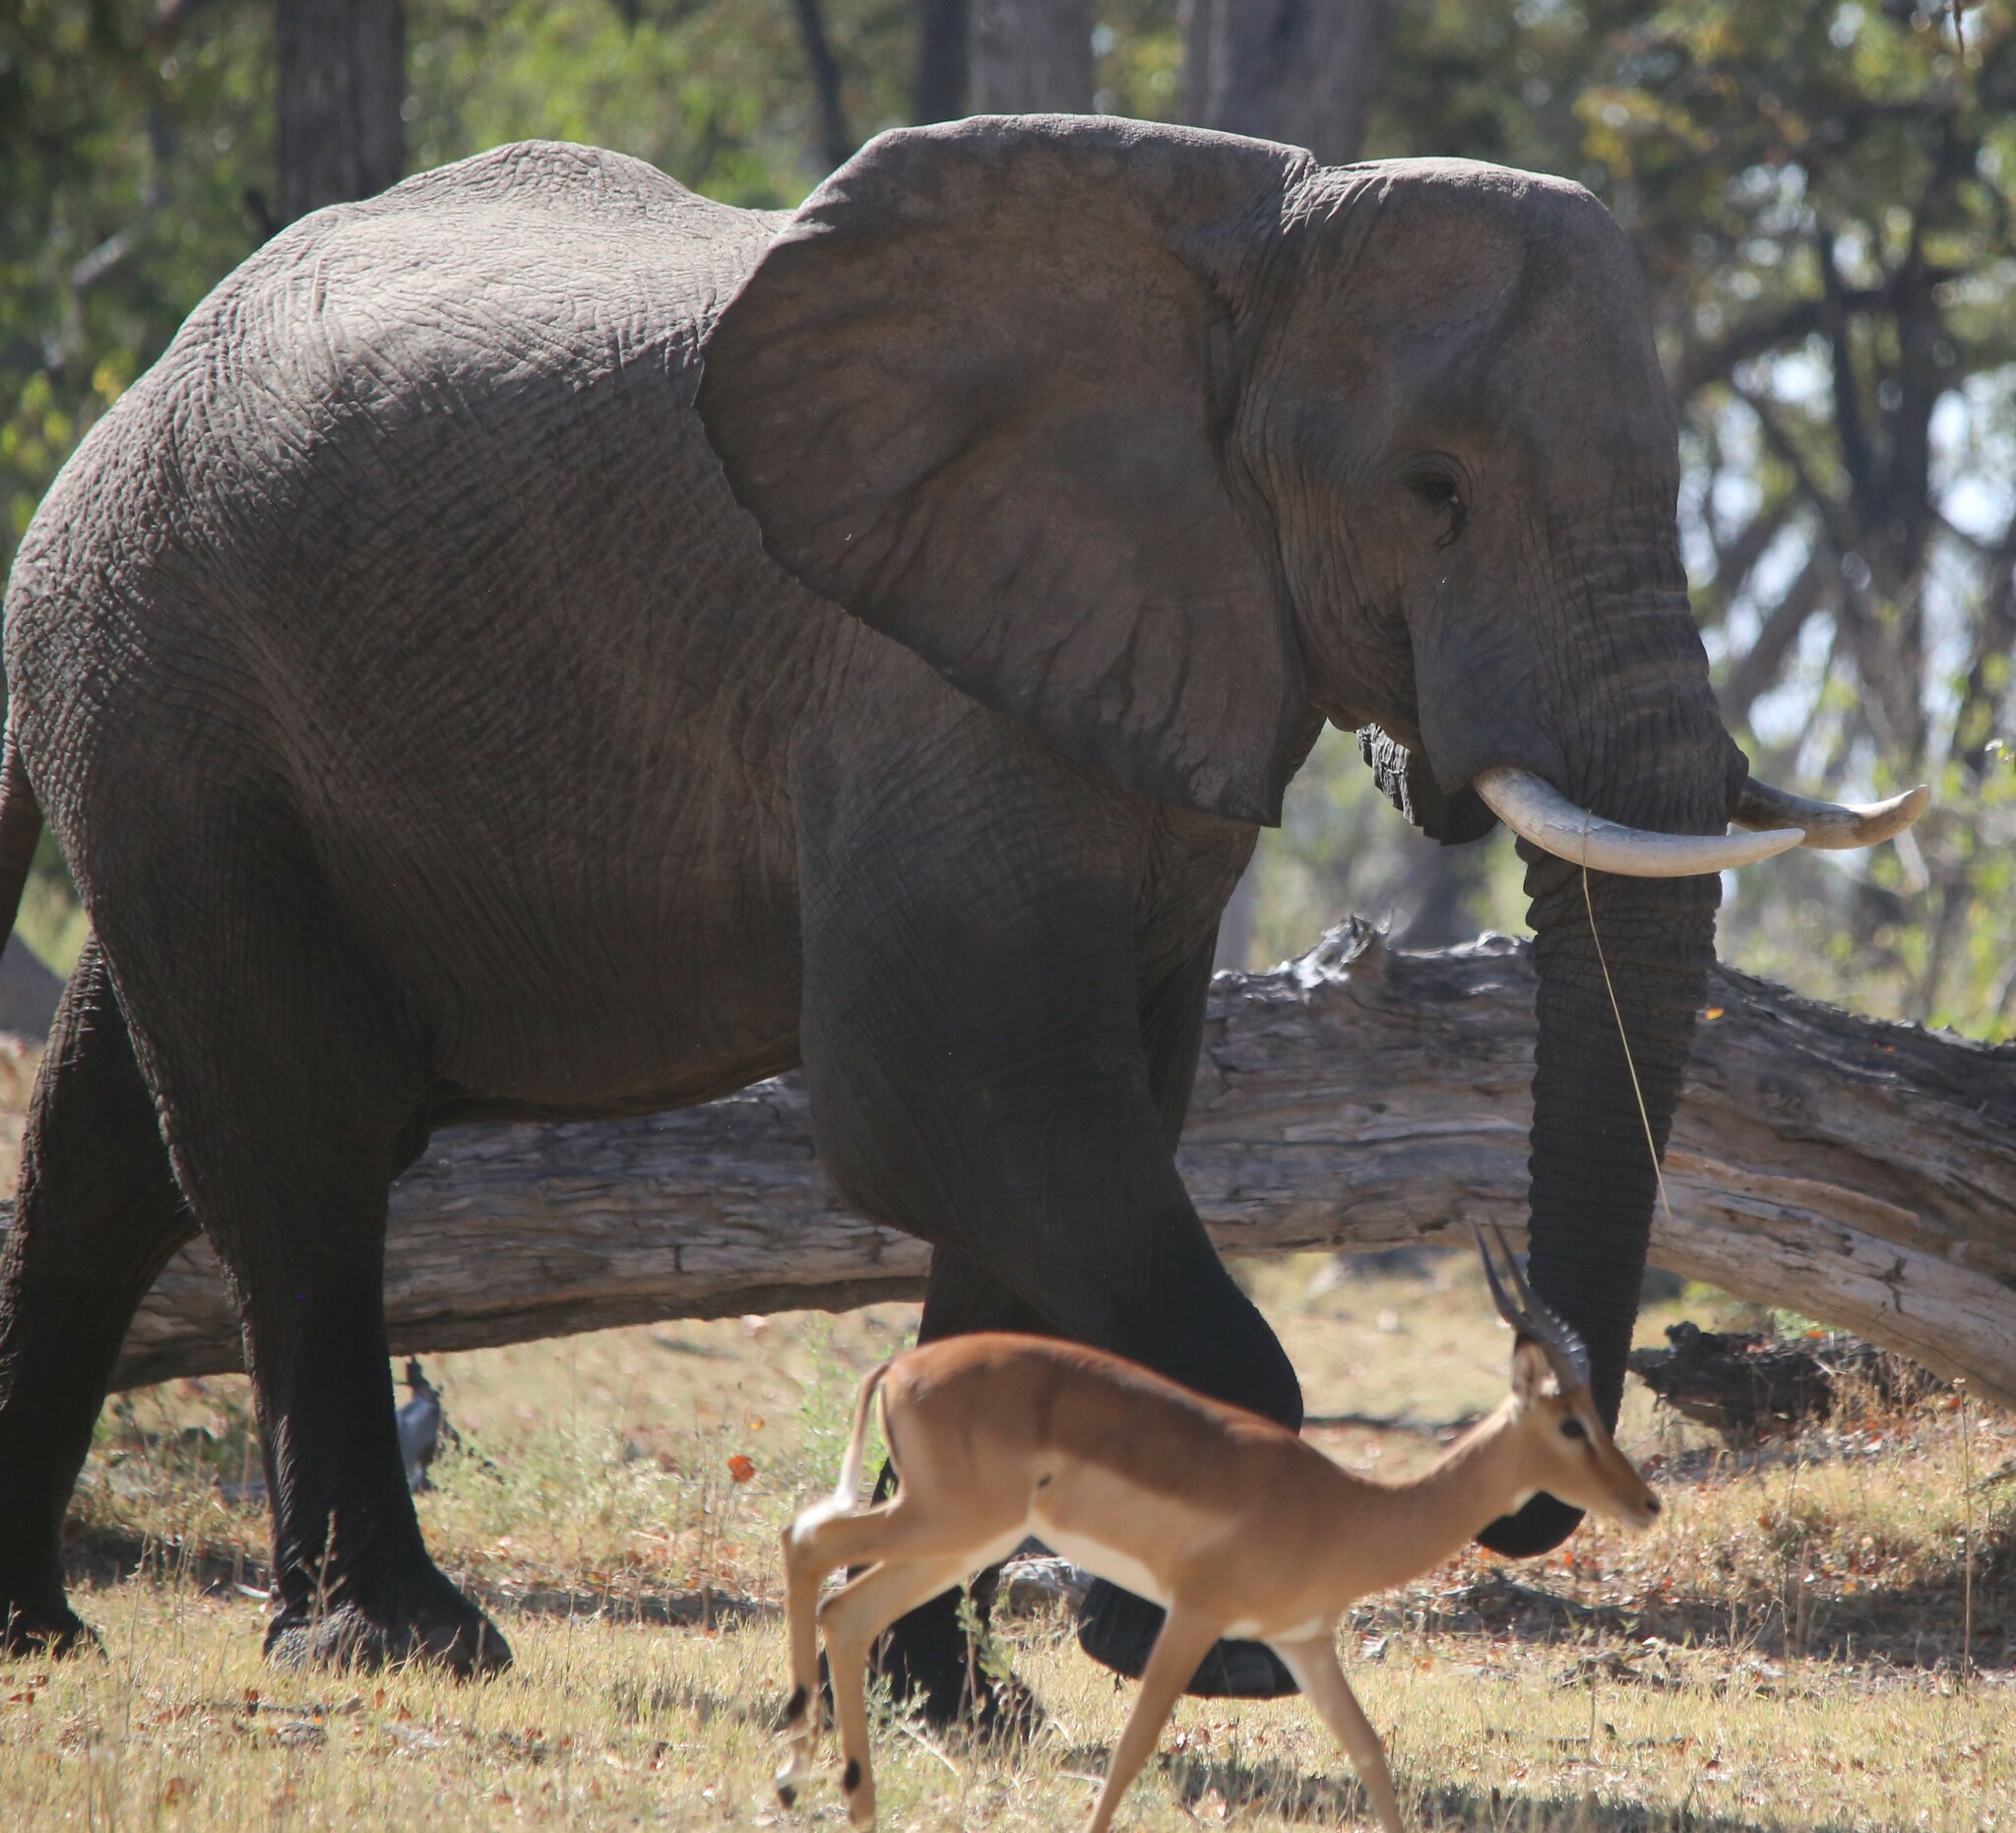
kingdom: Animalia
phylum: Chordata
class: Mammalia
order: Proboscidea
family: Elephantidae
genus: Loxodonta
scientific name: Loxodonta africana
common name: African elephant
